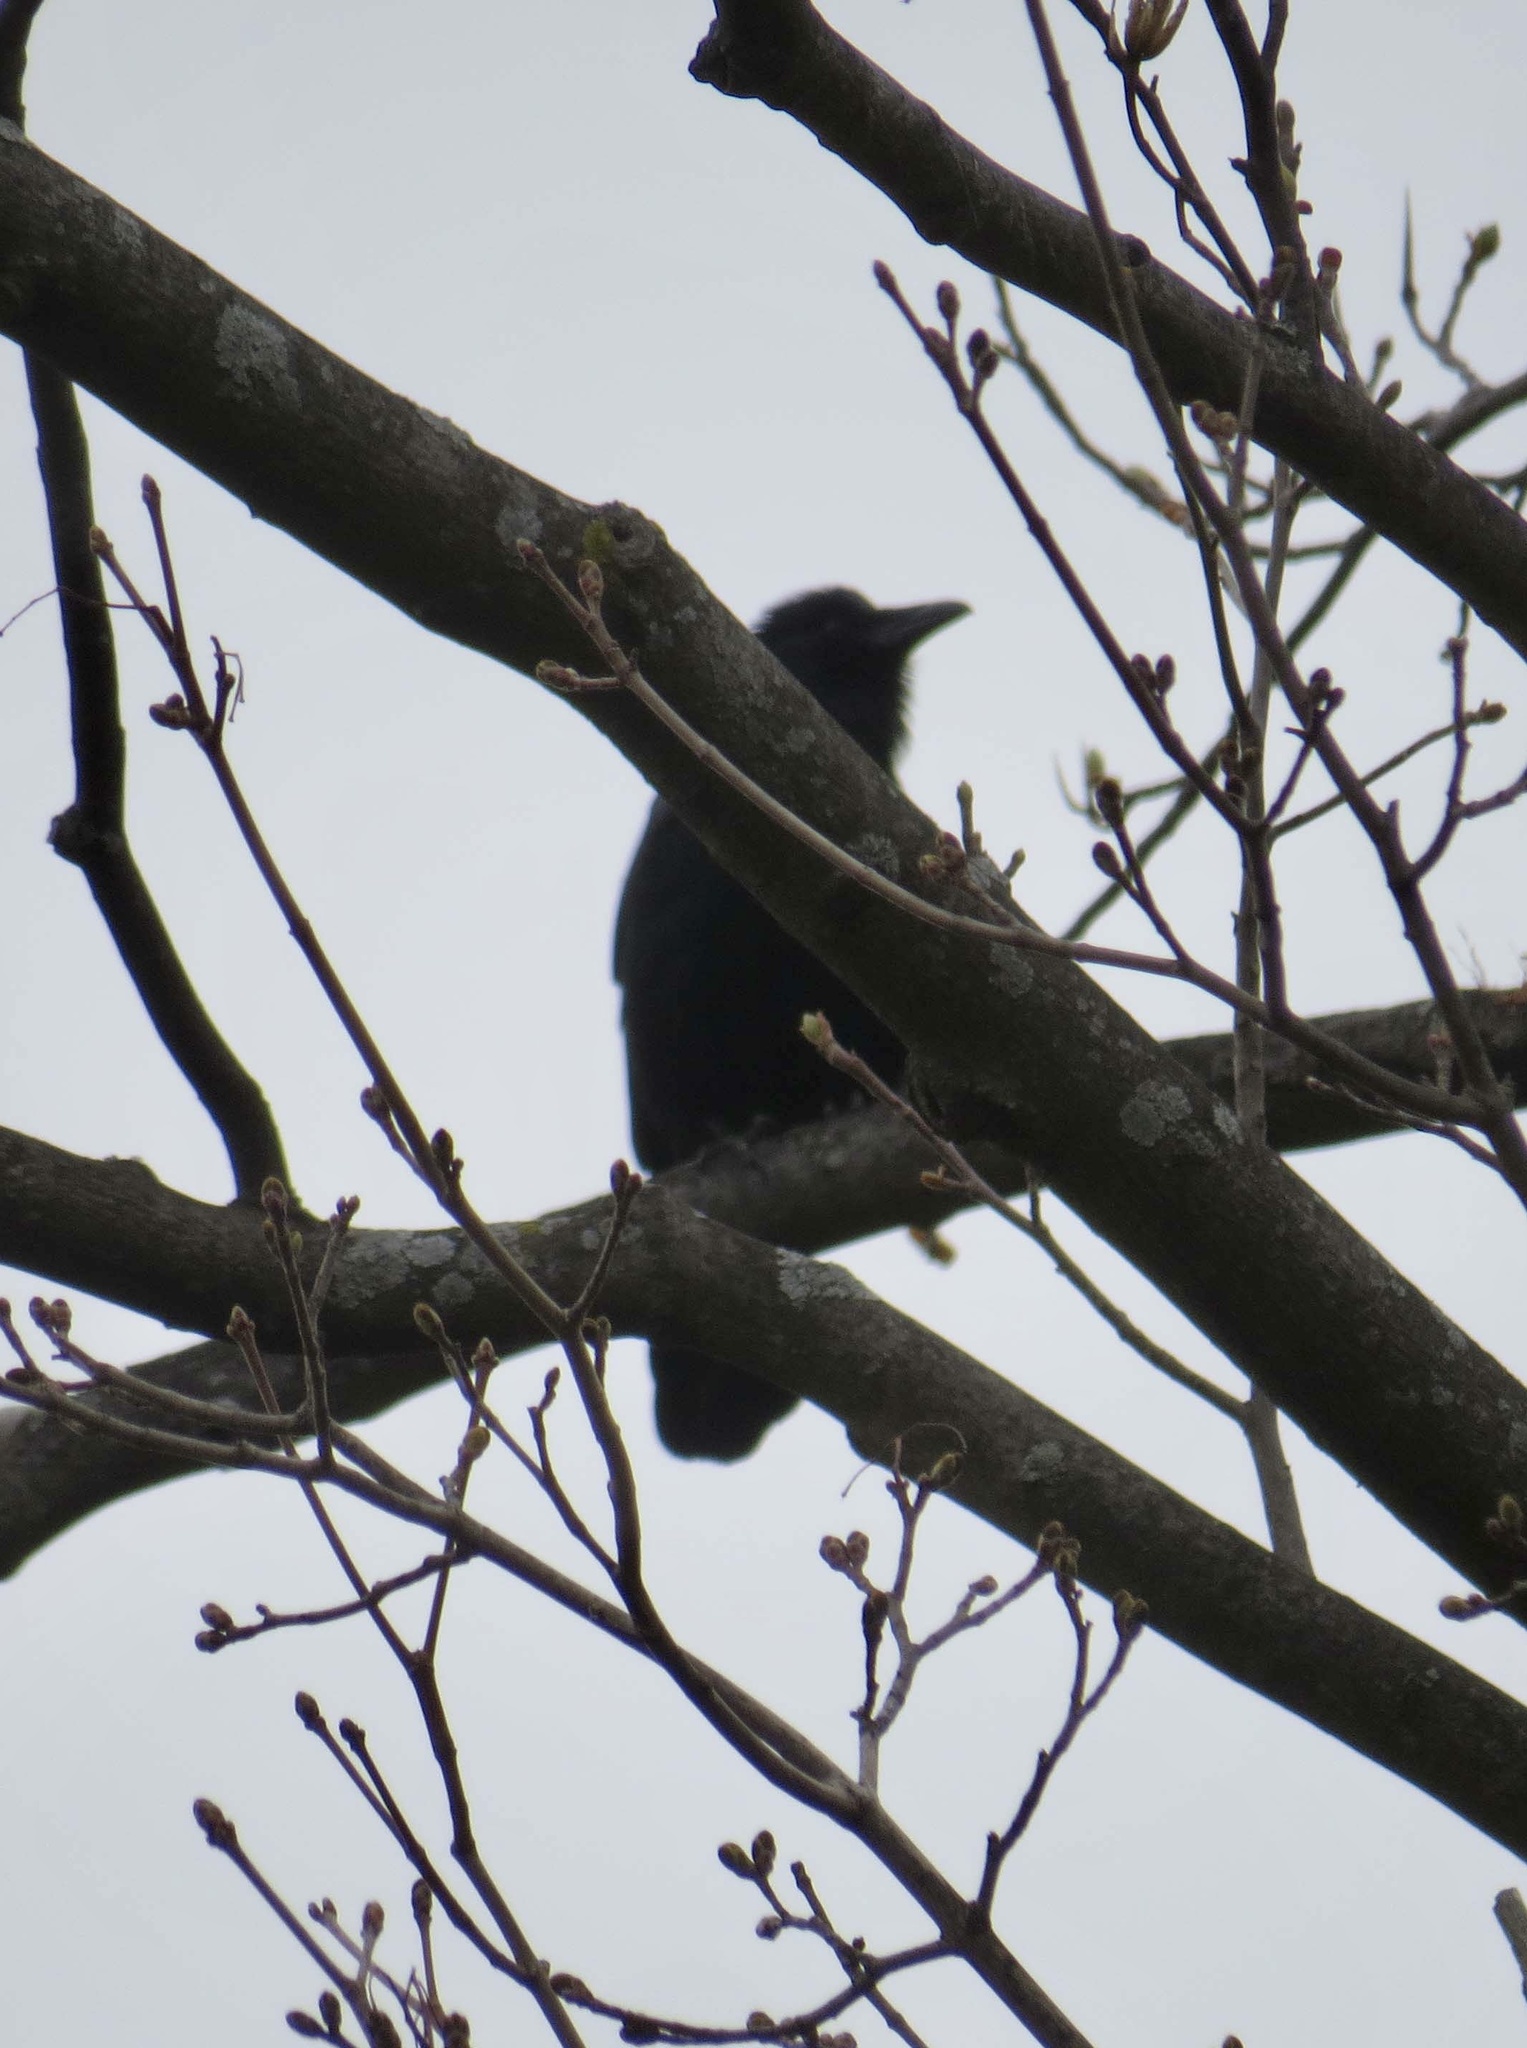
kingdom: Animalia
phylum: Chordata
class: Aves
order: Passeriformes
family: Corvidae
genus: Corvus
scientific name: Corvus ossifragus
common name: Fish crow
